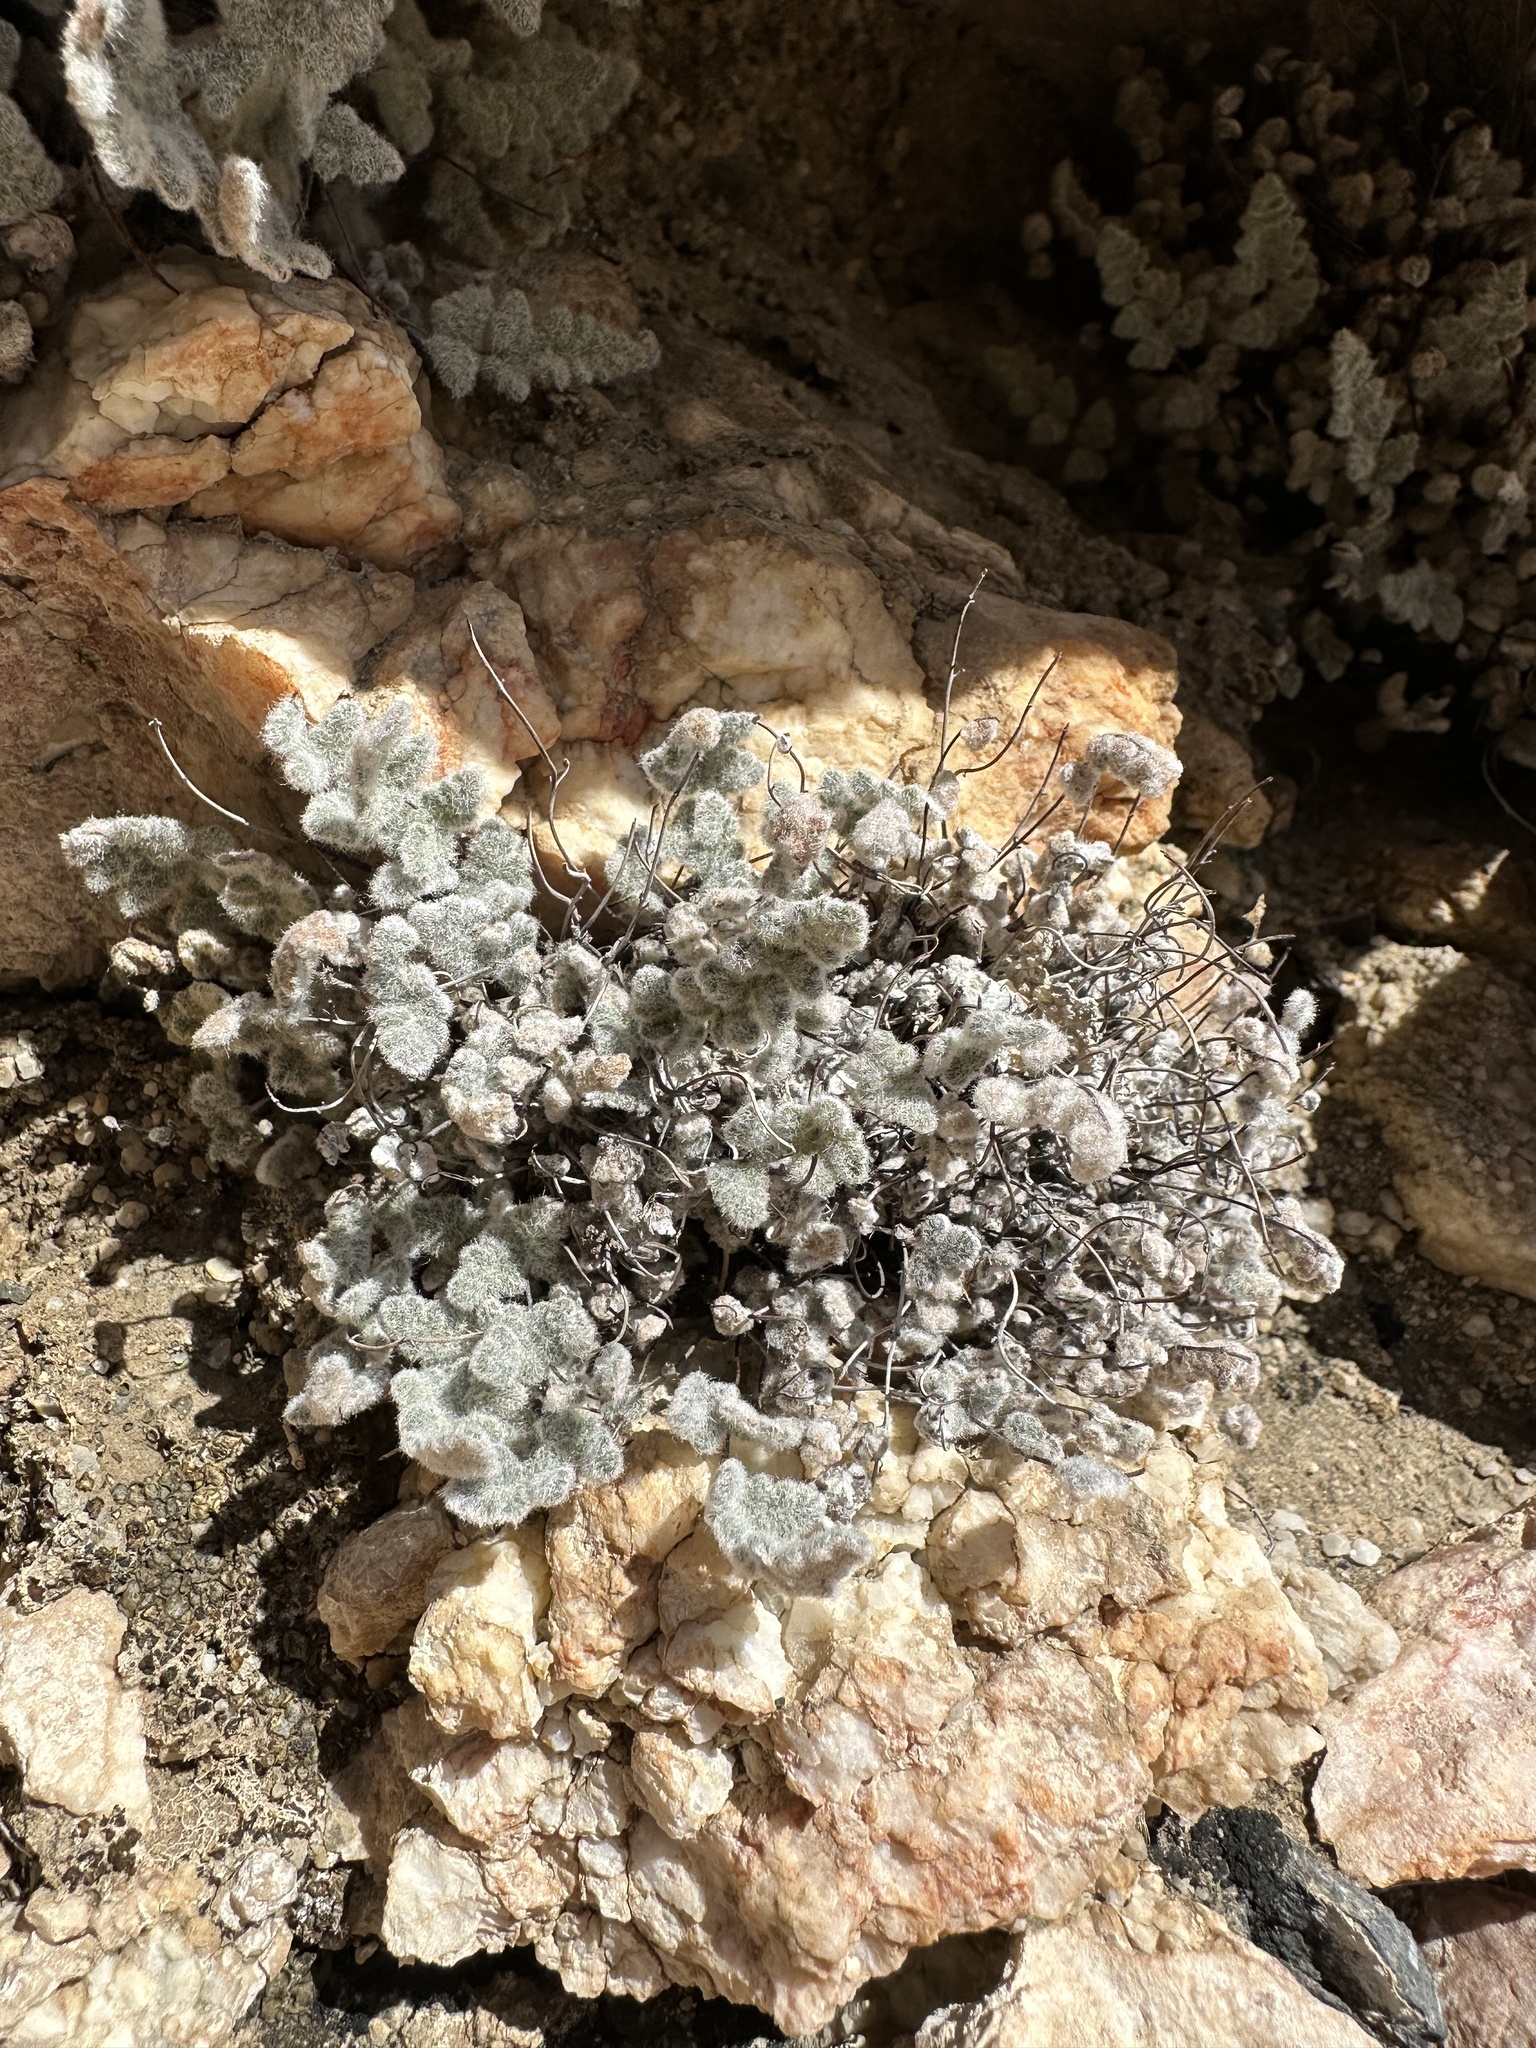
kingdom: Plantae
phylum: Tracheophyta
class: Polypodiopsida
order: Polypodiales
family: Pteridaceae
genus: Myriopteris
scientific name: Myriopteris parryi
